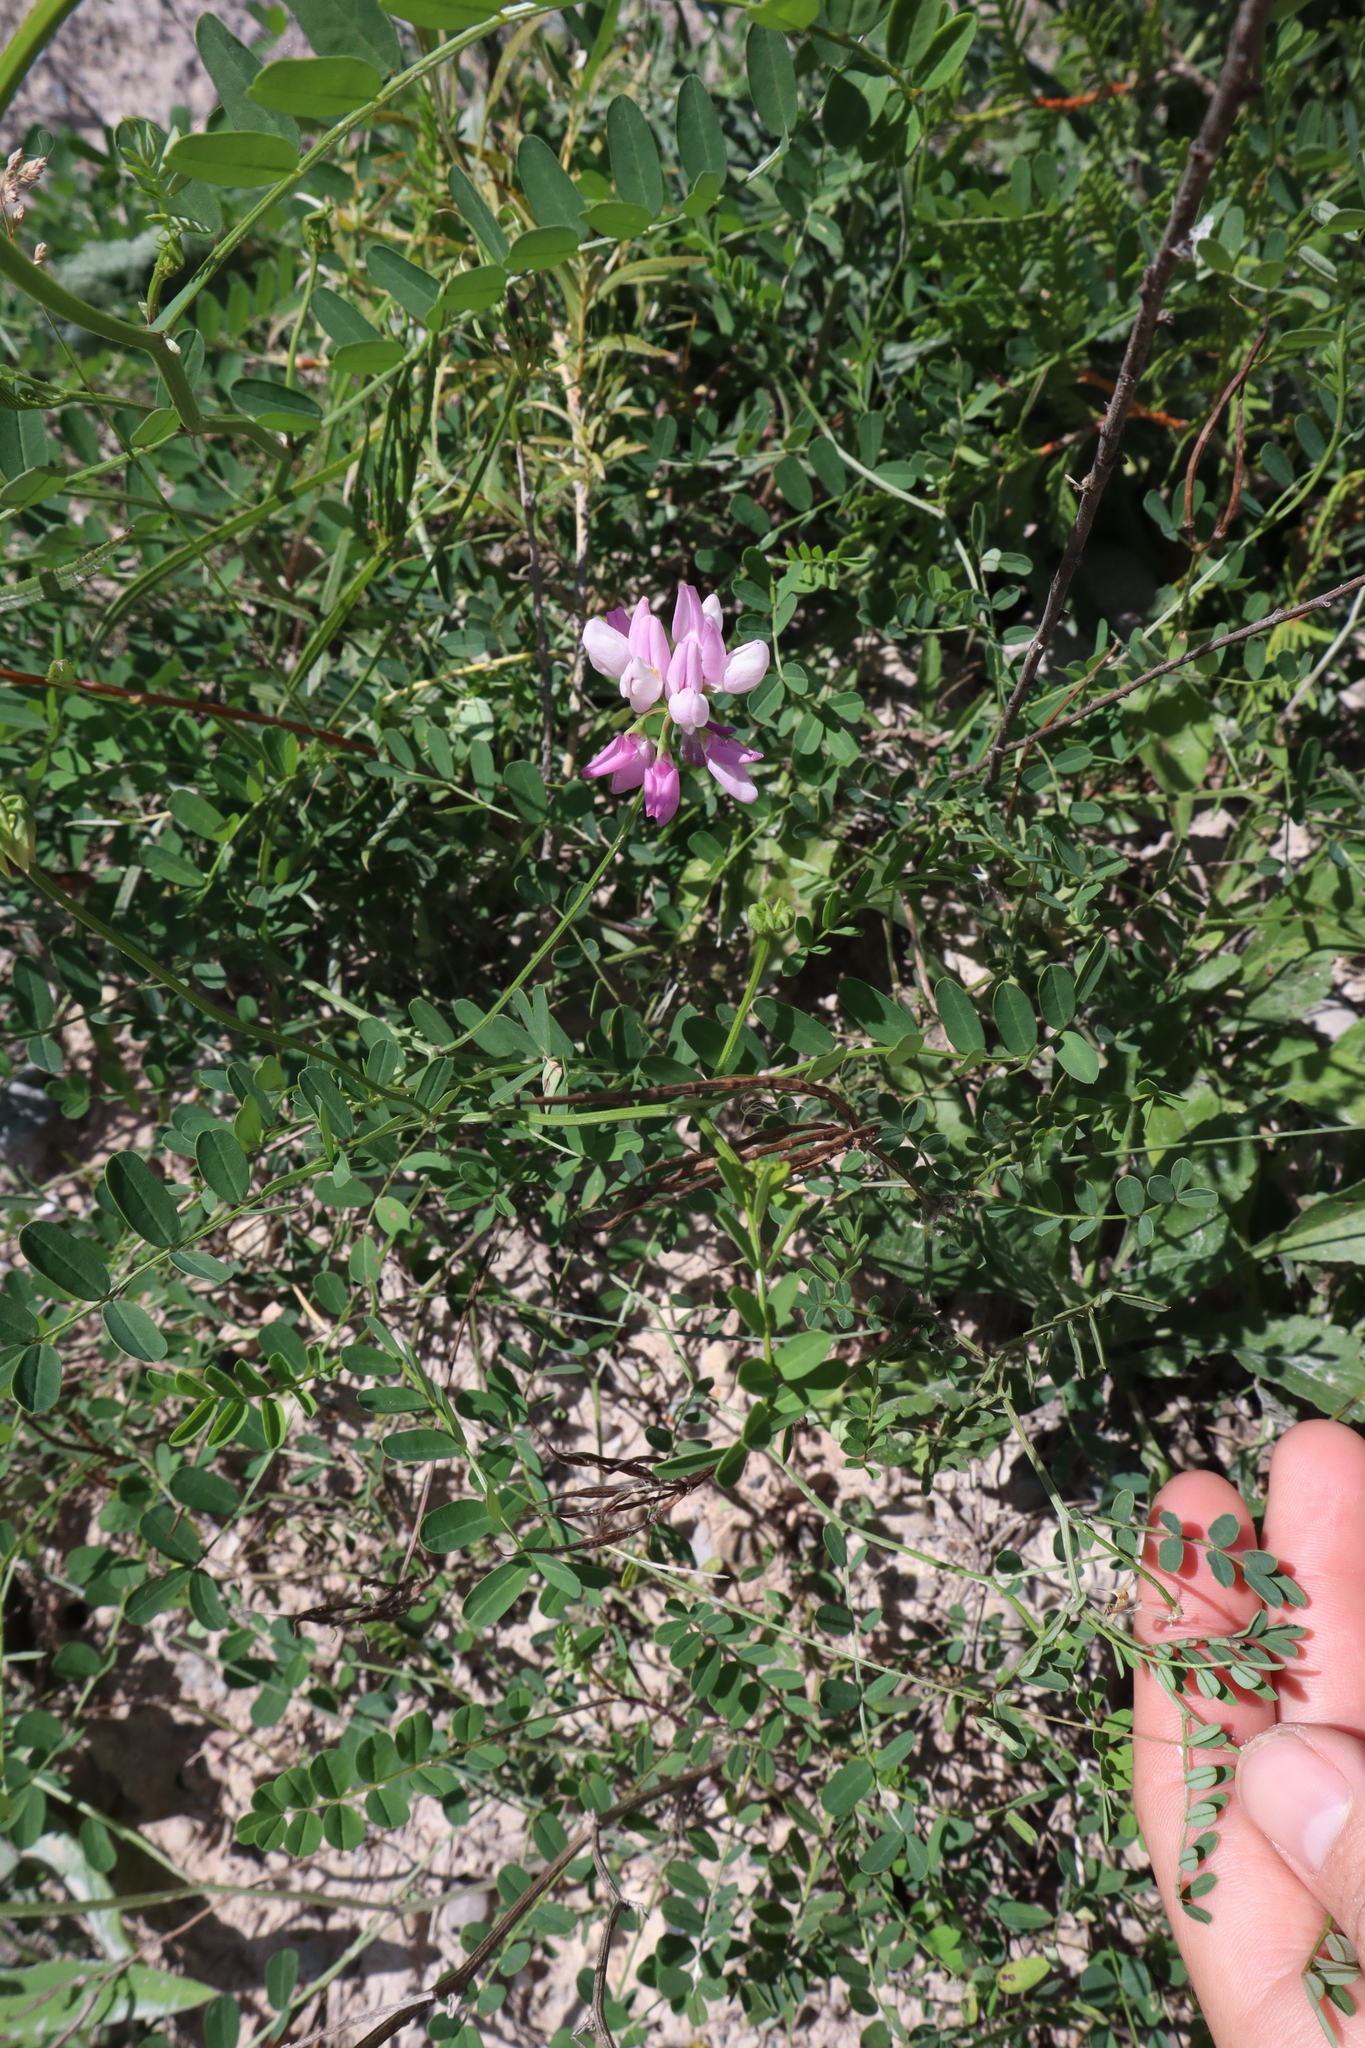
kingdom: Plantae
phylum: Tracheophyta
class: Magnoliopsida
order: Fabales
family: Fabaceae
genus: Coronilla
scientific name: Coronilla varia
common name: Crownvetch
